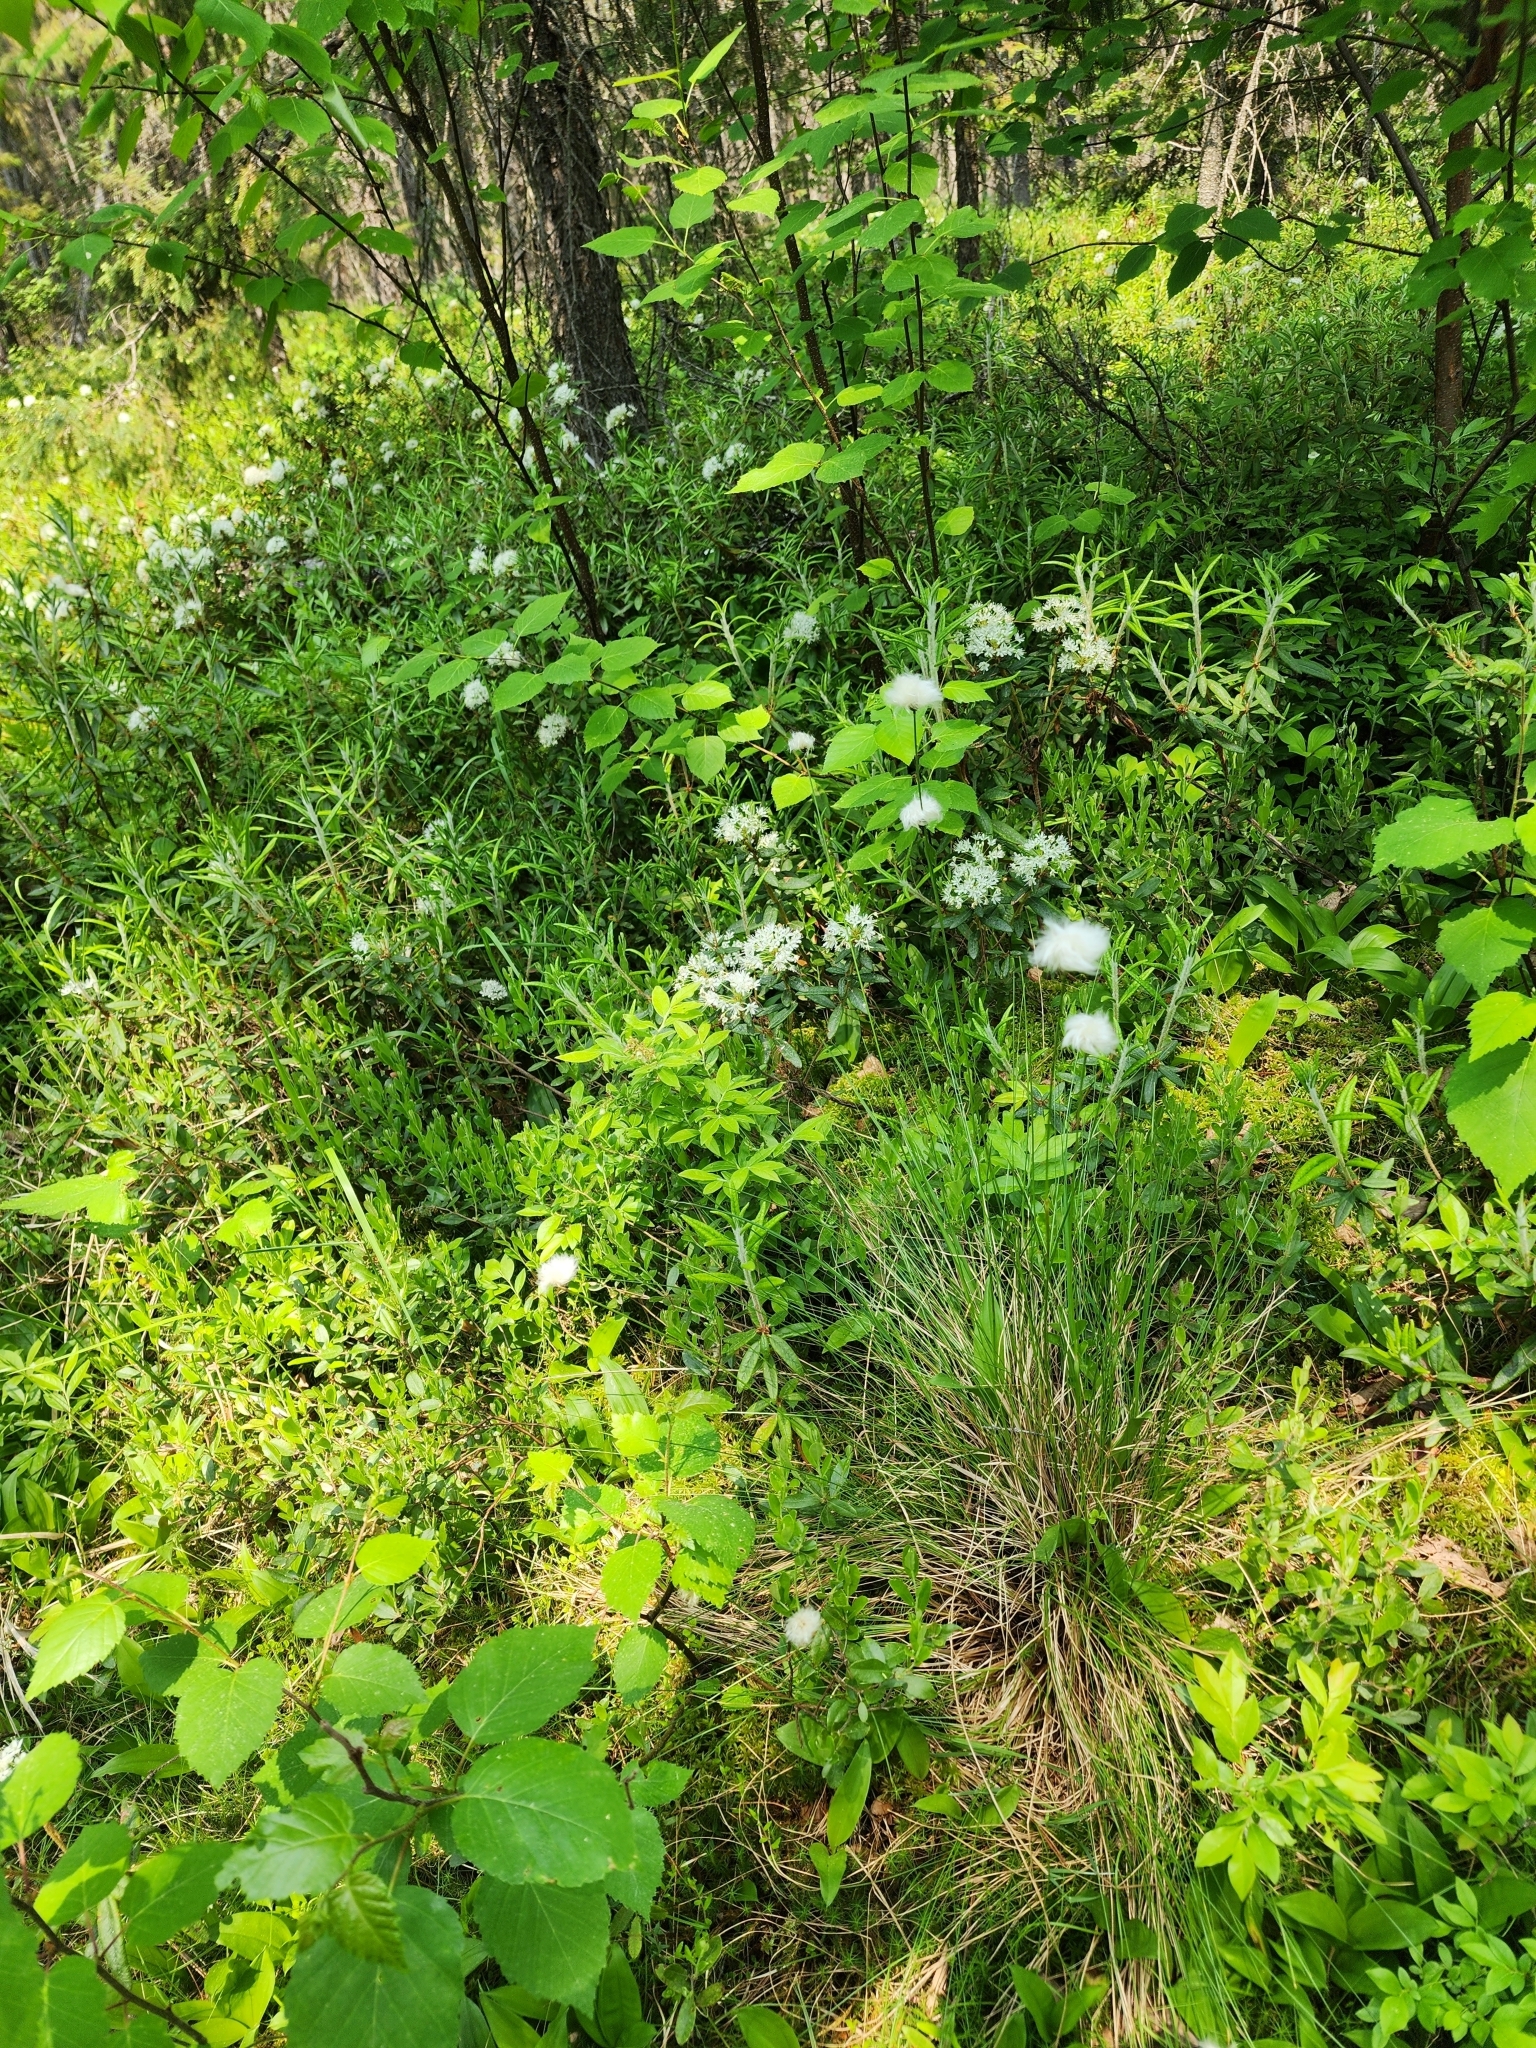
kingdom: Plantae
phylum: Tracheophyta
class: Liliopsida
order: Poales
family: Cyperaceae
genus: Eriophorum
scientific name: Eriophorum vaginatum
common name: Hare's-tail cottongrass
